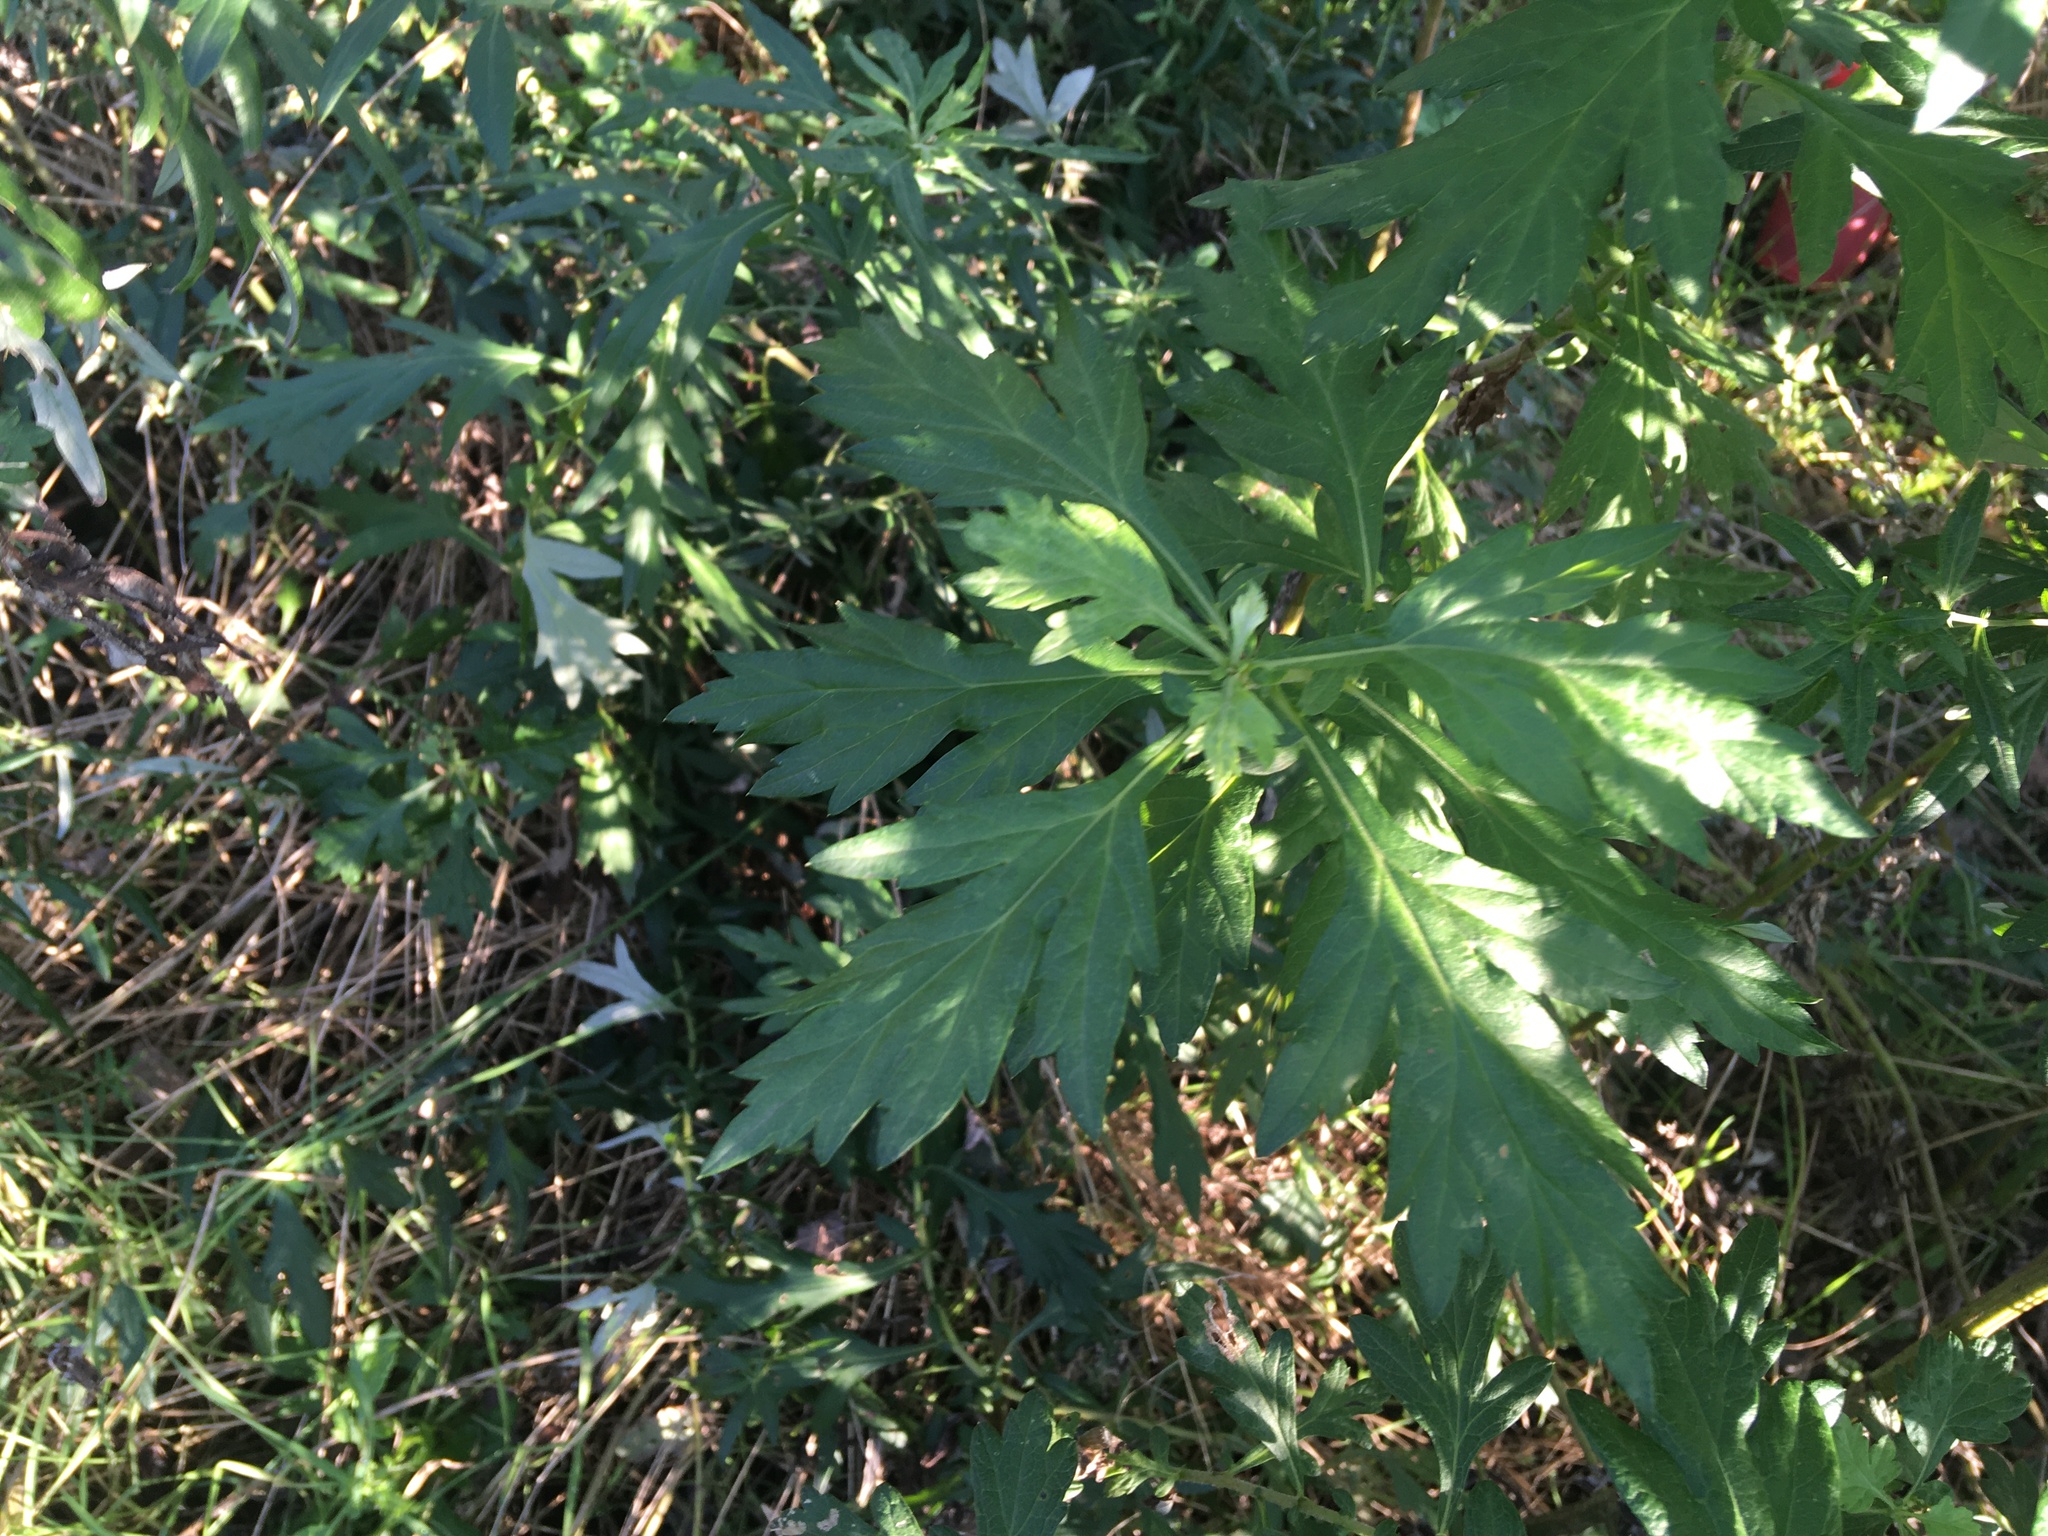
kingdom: Plantae
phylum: Tracheophyta
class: Magnoliopsida
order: Asterales
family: Asteraceae
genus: Artemisia
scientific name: Artemisia vulgaris
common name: Mugwort
